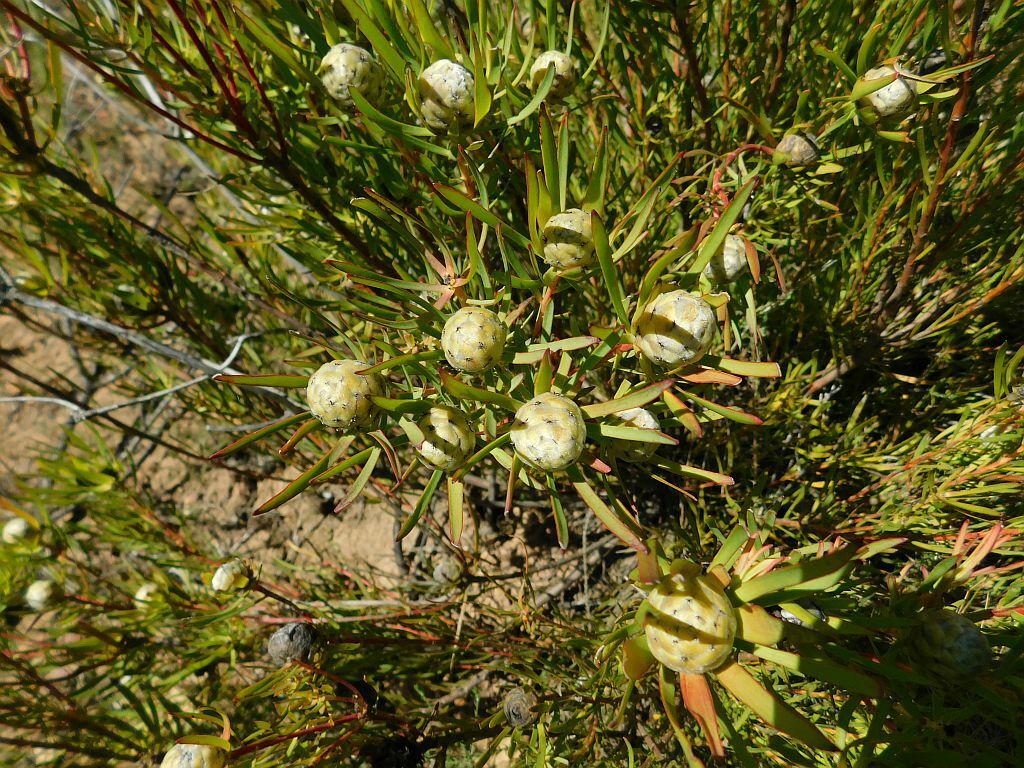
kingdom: Plantae
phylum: Tracheophyta
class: Magnoliopsida
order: Proteales
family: Proteaceae
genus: Leucadendron
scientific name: Leucadendron salignum
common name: Common sunshine conebush
